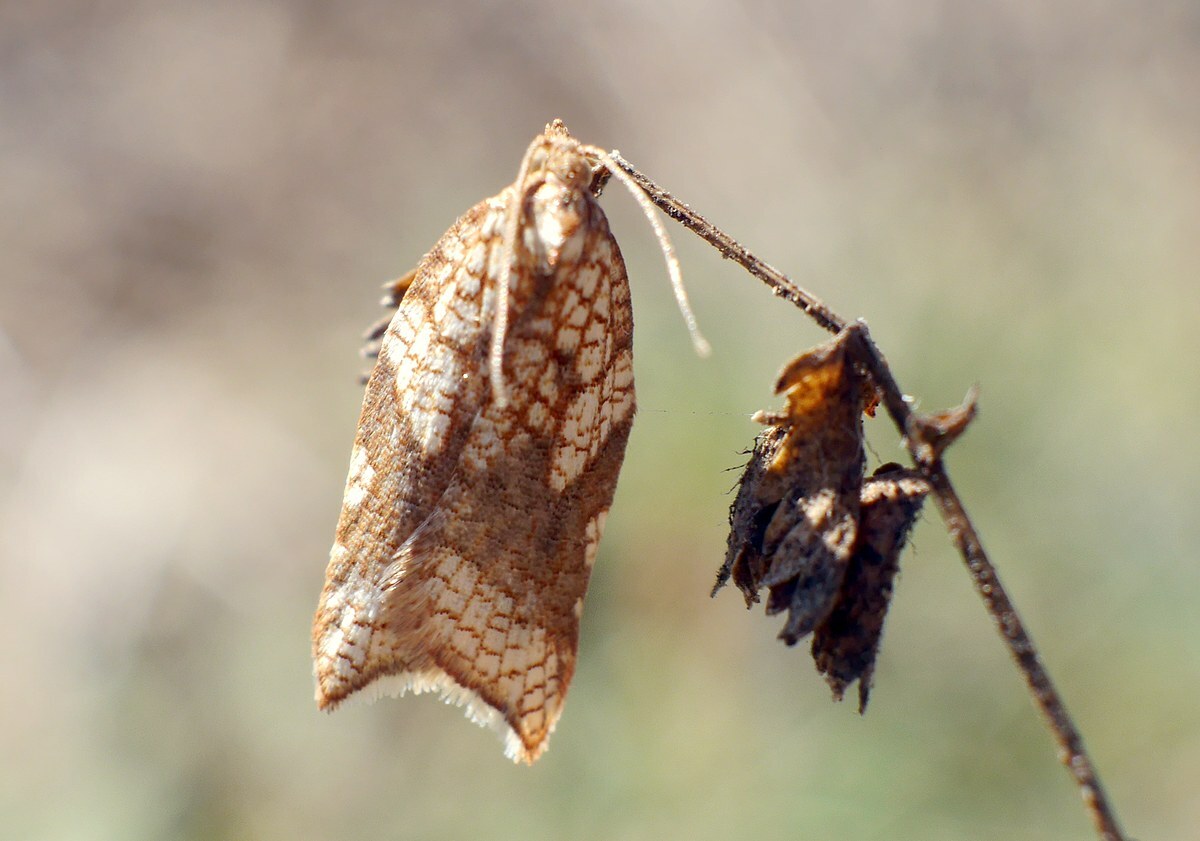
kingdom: Animalia
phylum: Arthropoda
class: Insecta
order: Lepidoptera
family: Tortricidae
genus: Acleris
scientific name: Acleris rhombana
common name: Tortricid moth
